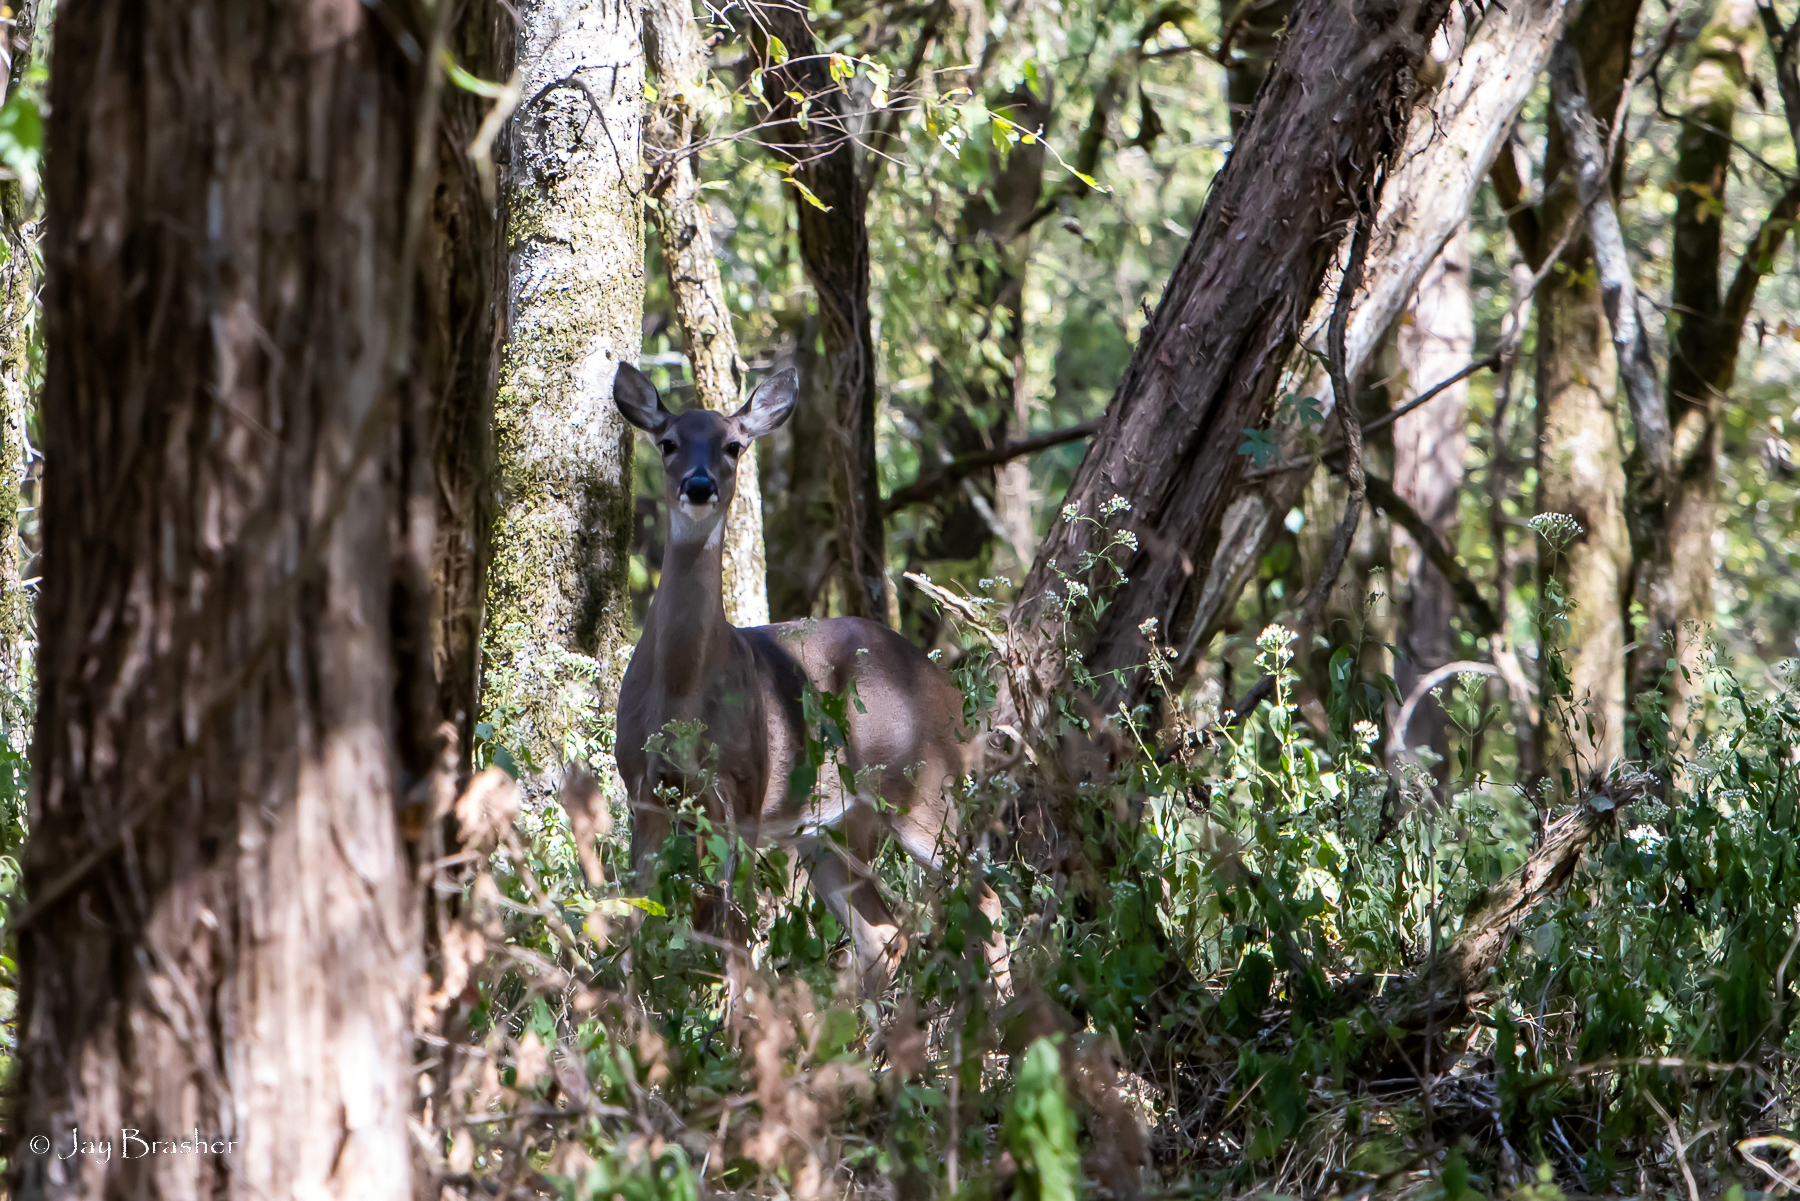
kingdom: Animalia
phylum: Chordata
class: Mammalia
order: Artiodactyla
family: Cervidae
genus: Odocoileus
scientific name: Odocoileus virginianus
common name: White-tailed deer
